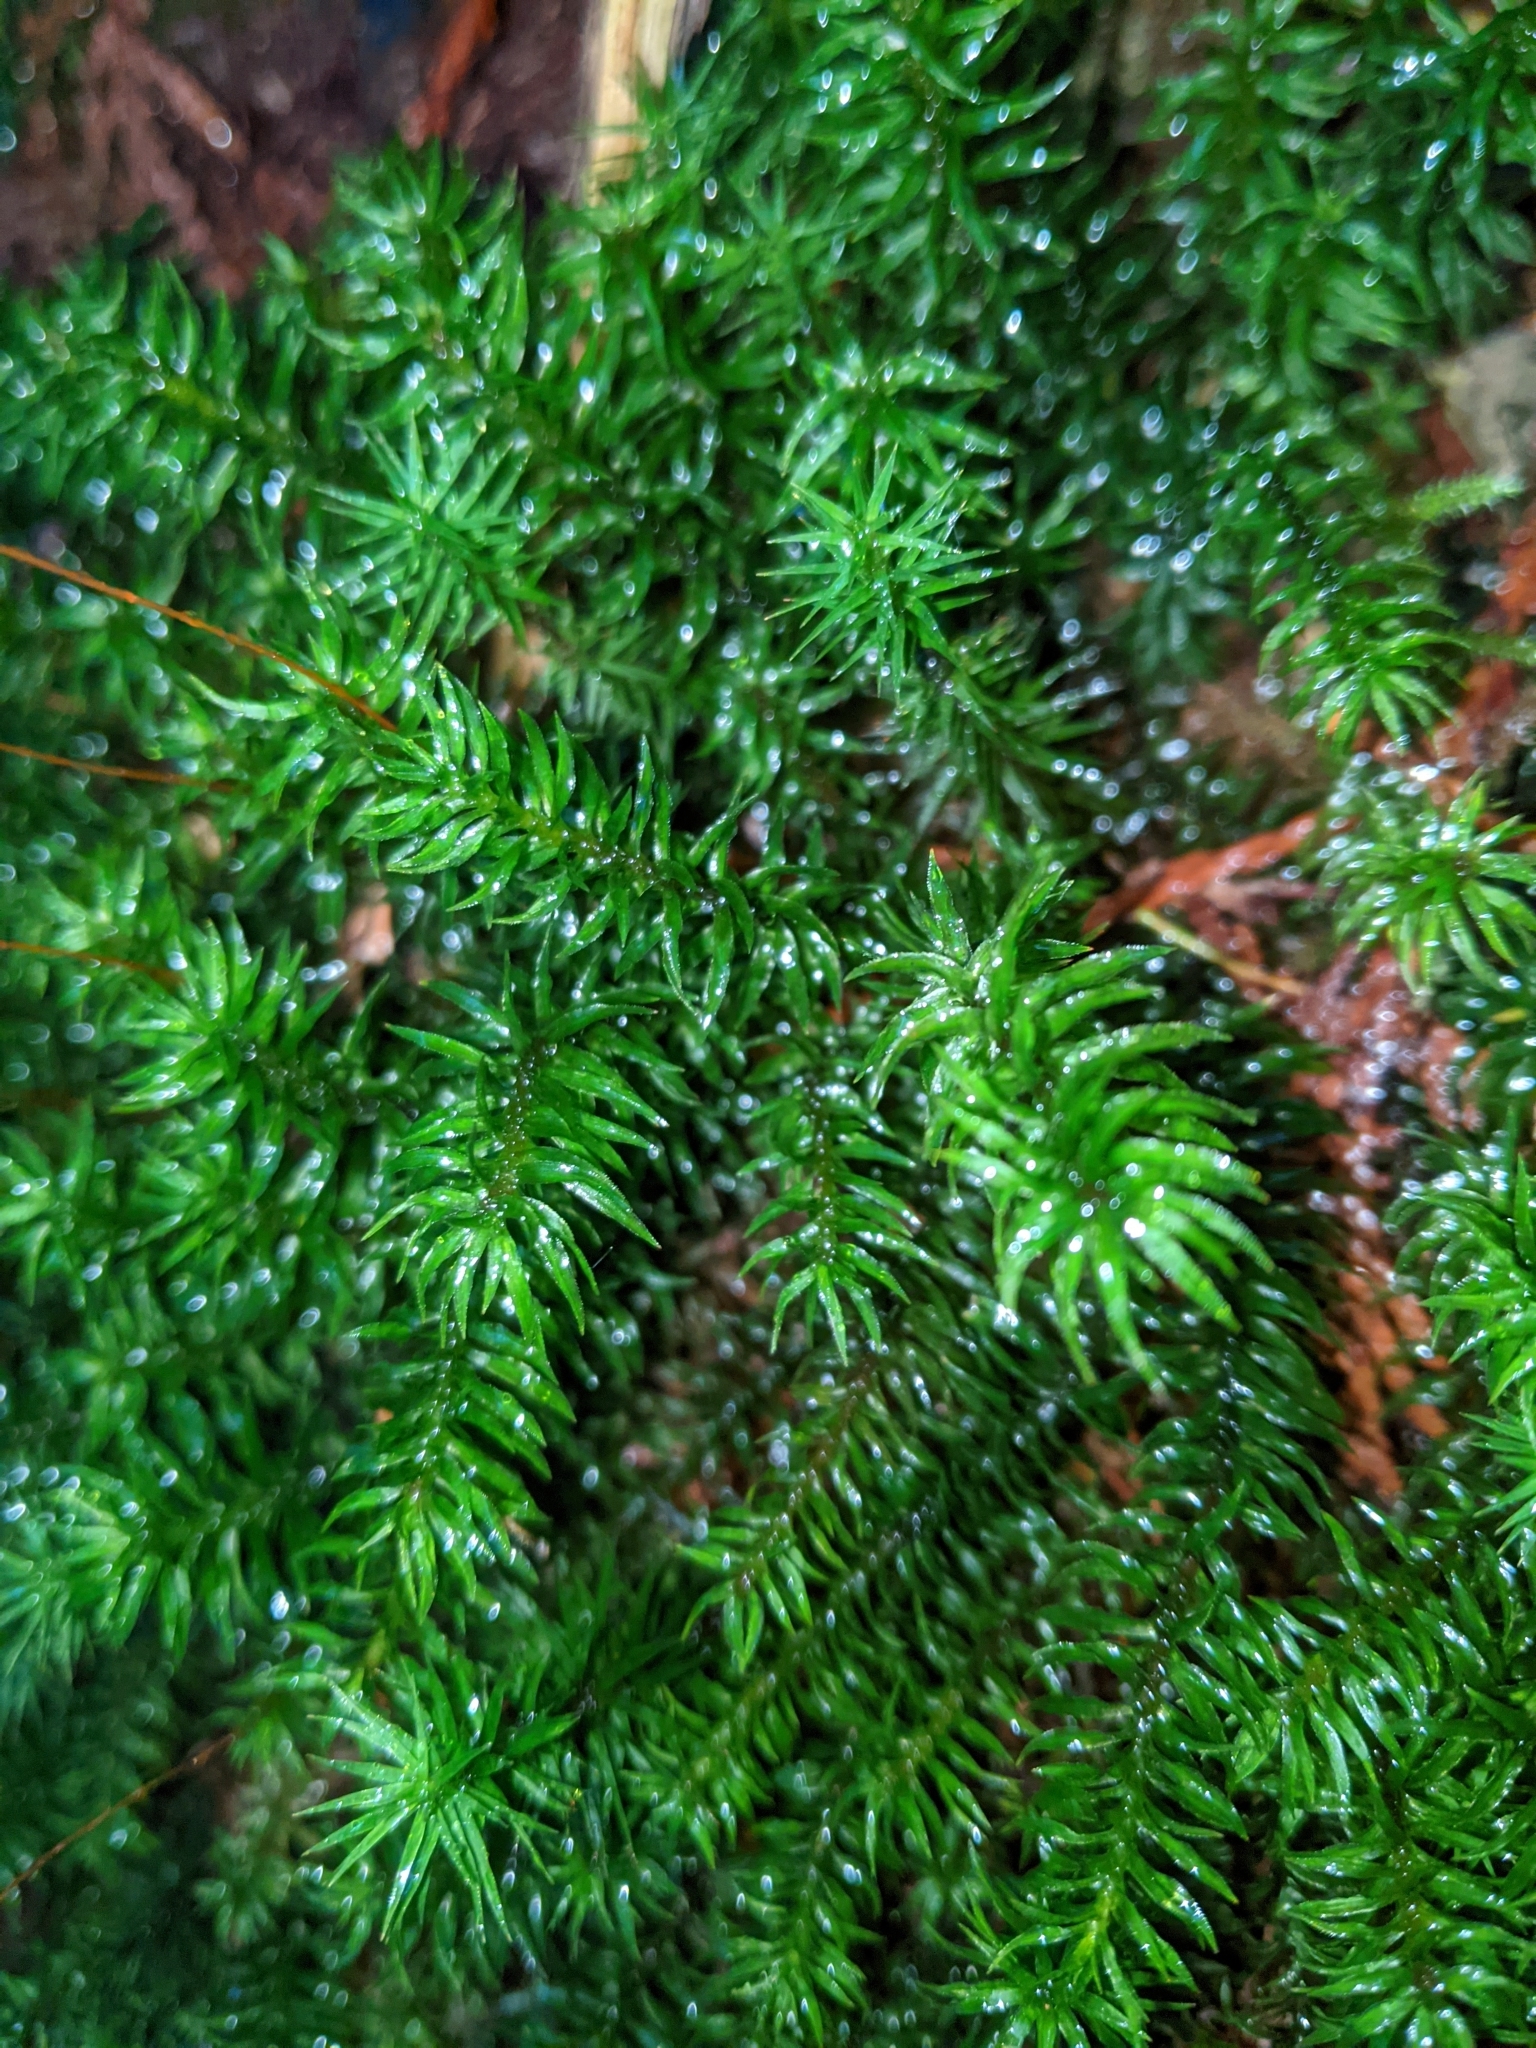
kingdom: Plantae
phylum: Bryophyta
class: Polytrichopsida
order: Polytrichales
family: Polytrichaceae
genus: Pogonatum
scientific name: Pogonatum contortum
